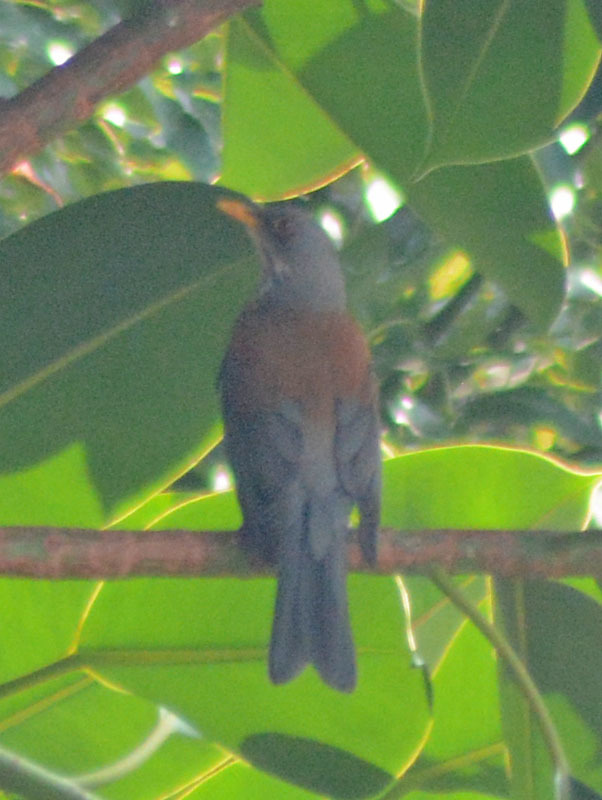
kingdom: Animalia
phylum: Chordata
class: Aves
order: Passeriformes
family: Turdidae
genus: Turdus
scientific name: Turdus rufopalliatus
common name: Rufous-backed robin
